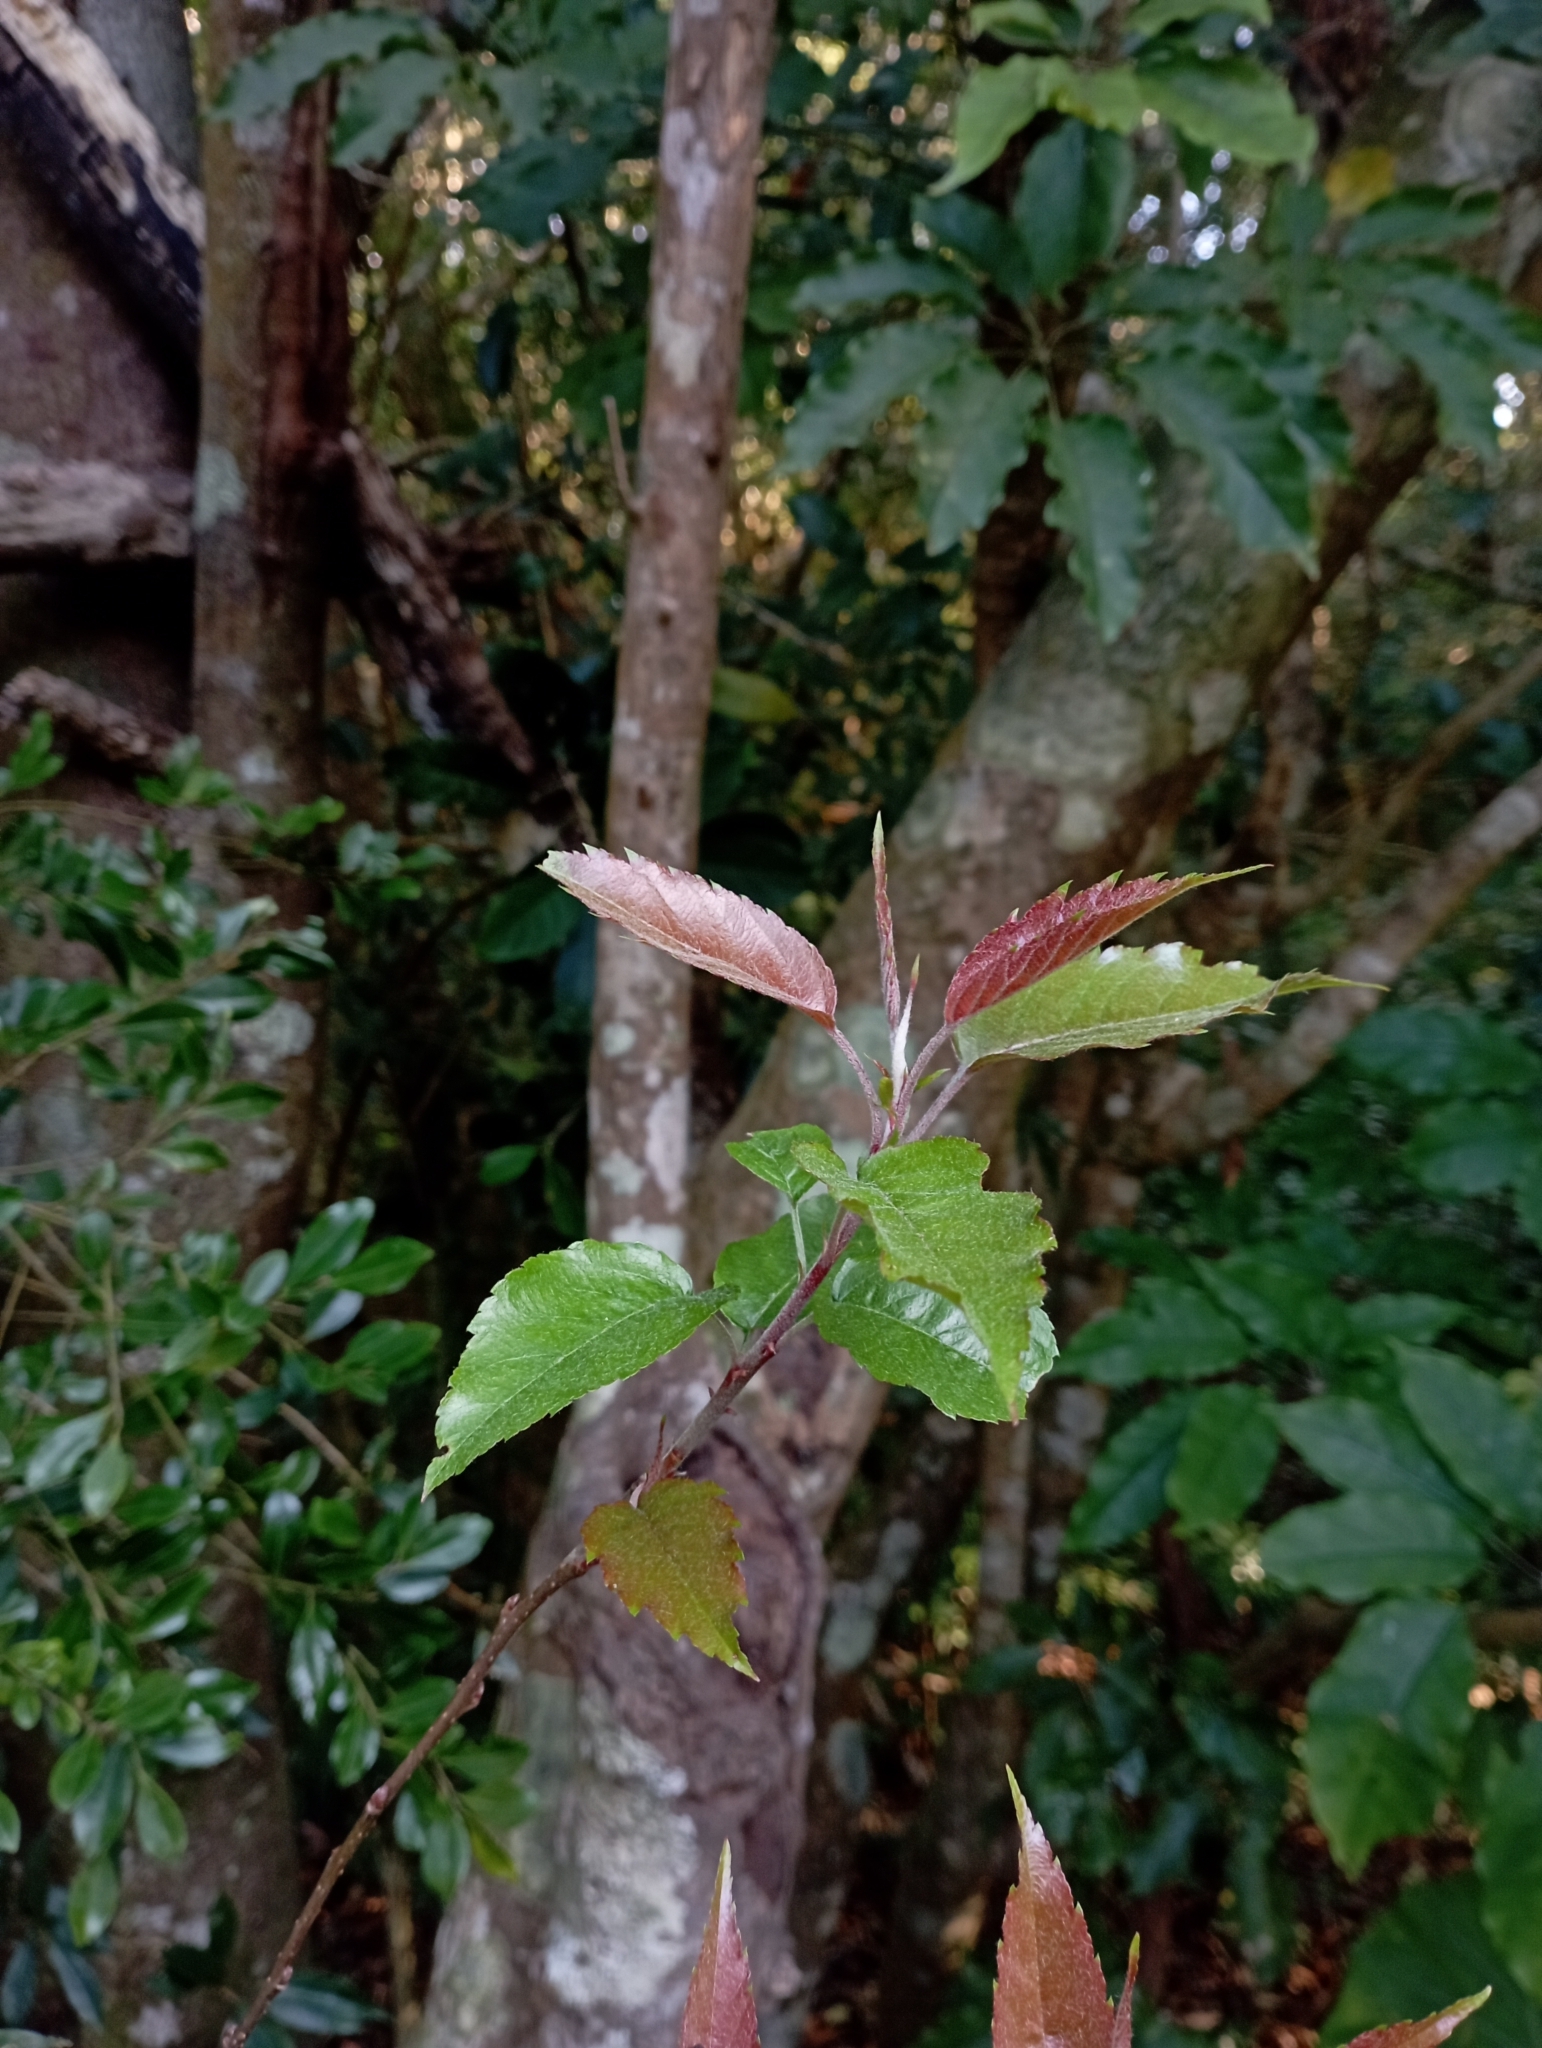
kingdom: Plantae
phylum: Tracheophyta
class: Magnoliopsida
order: Rosales
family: Rosaceae
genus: Malus
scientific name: Malus
